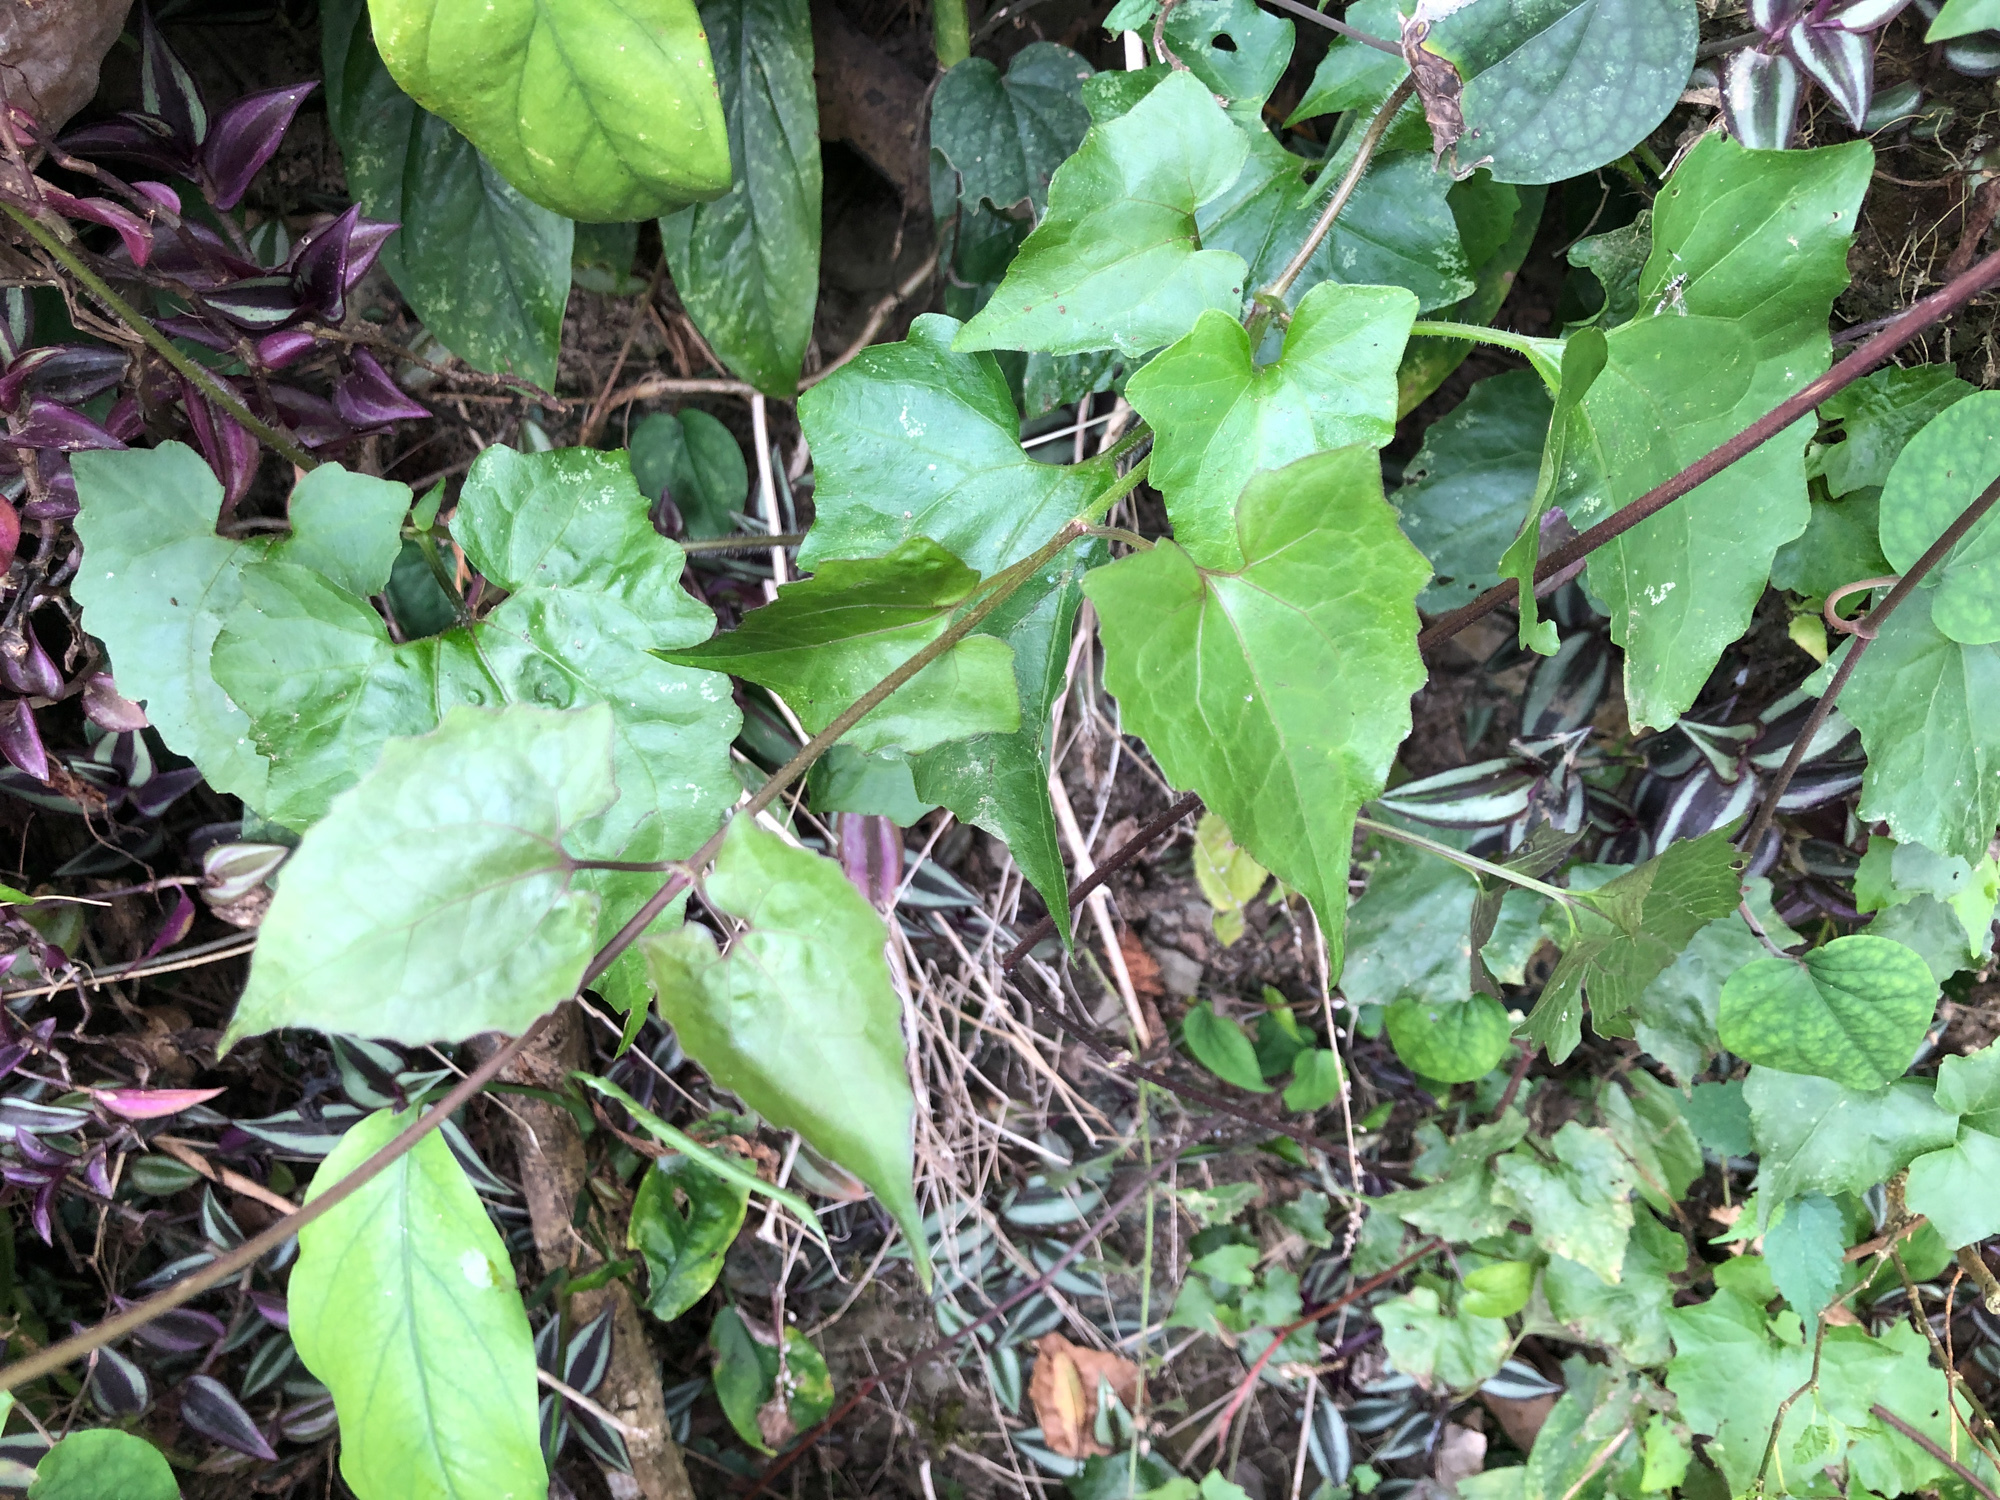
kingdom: Plantae
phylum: Tracheophyta
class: Magnoliopsida
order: Asterales
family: Asteraceae
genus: Mikania
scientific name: Mikania micrantha
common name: Mile-a-minute
